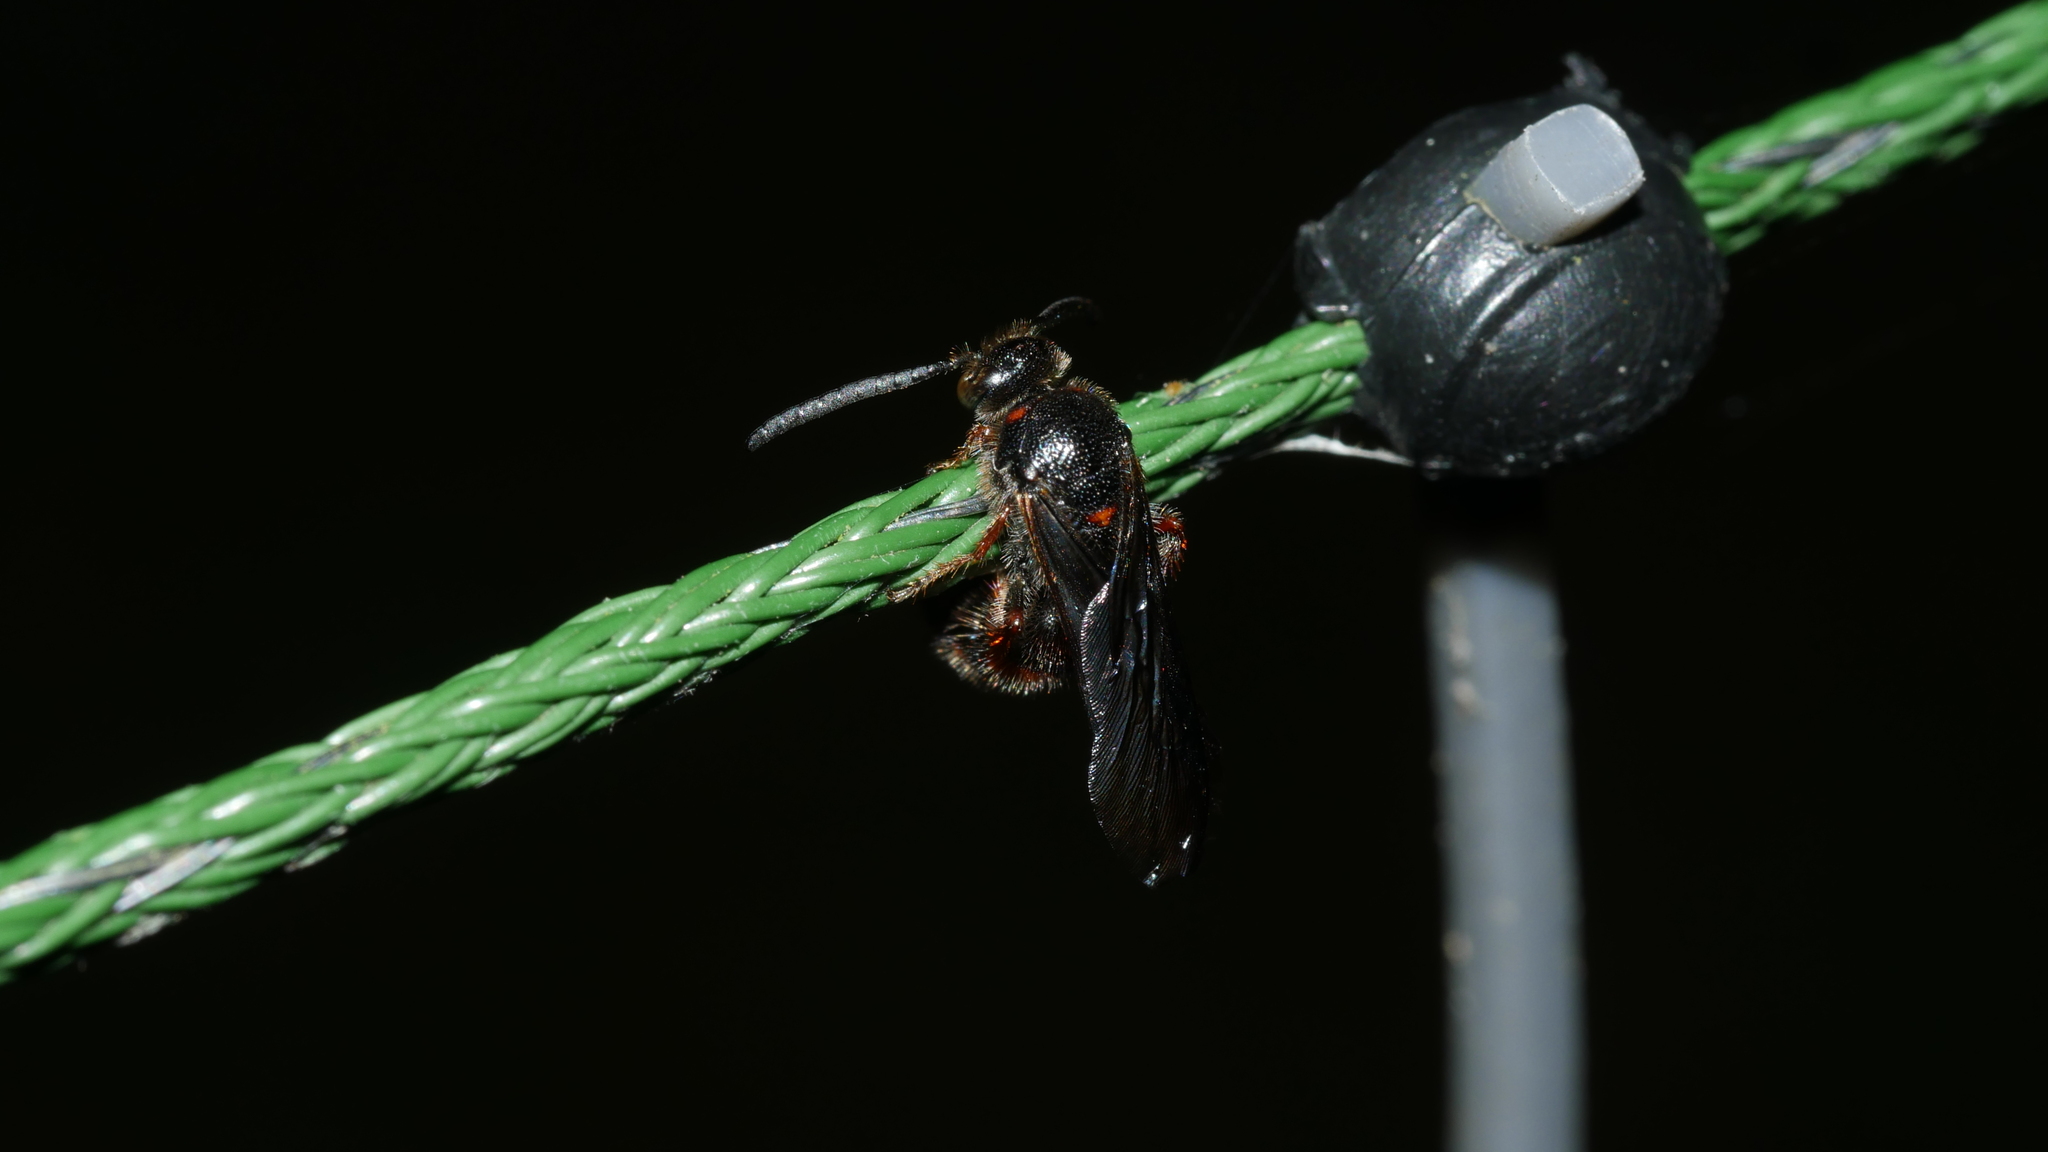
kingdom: Animalia
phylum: Arthropoda
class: Insecta
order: Hymenoptera
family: Scoliidae
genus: Scolia
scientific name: Scolia nobilitata
